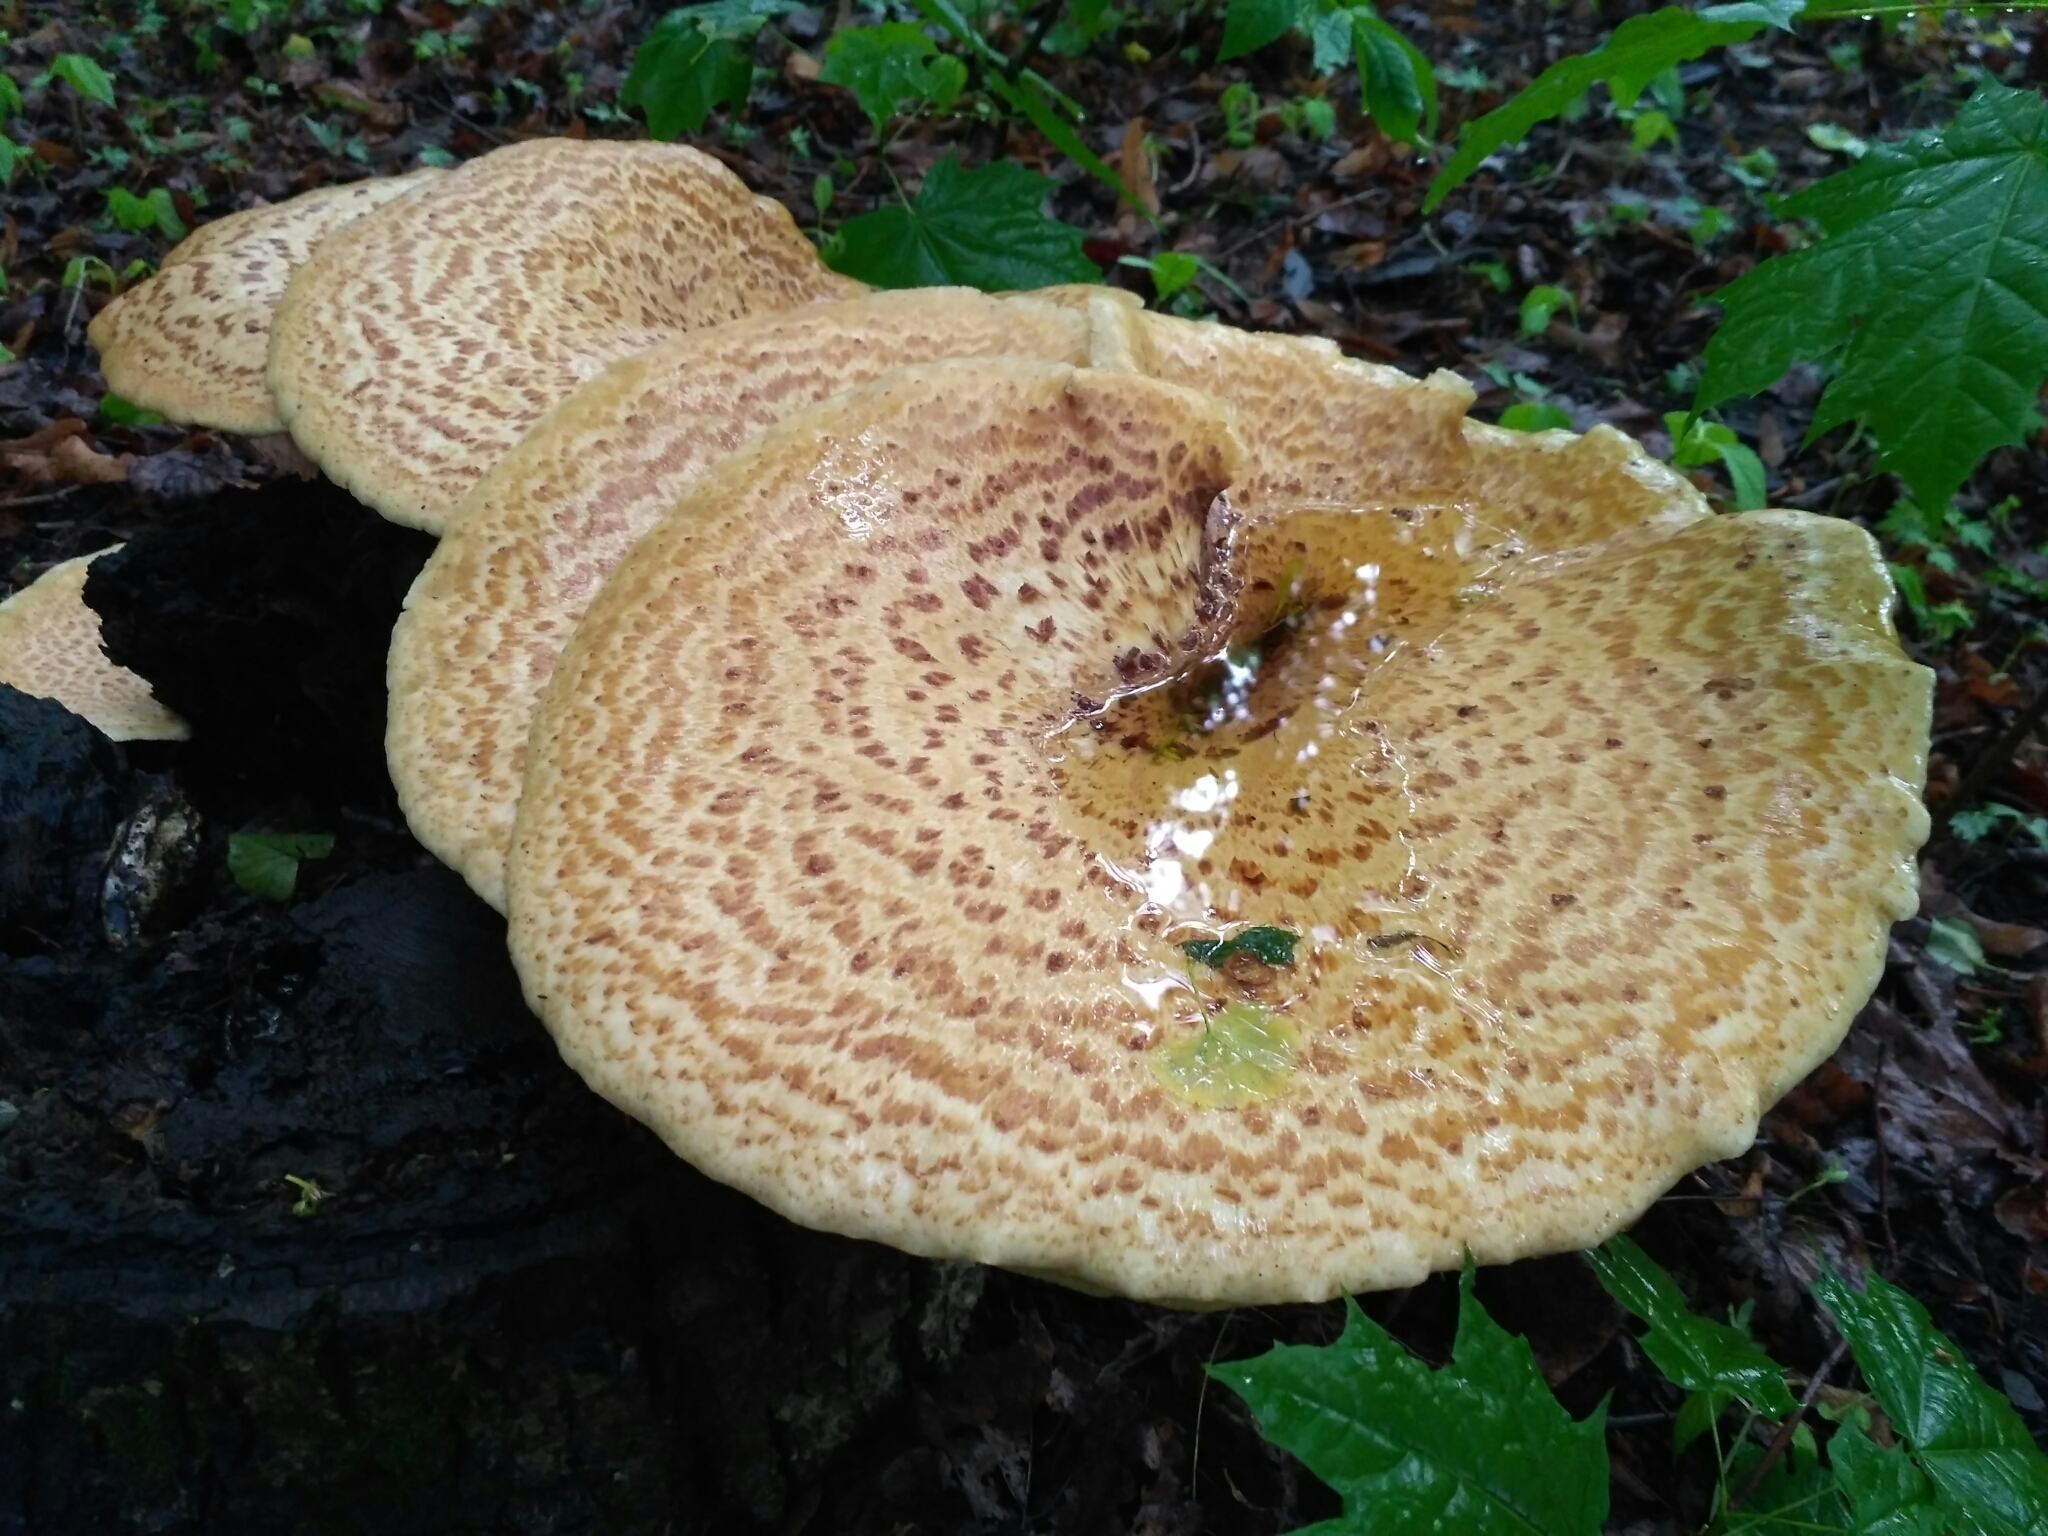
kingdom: Fungi
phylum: Basidiomycota
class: Agaricomycetes
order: Polyporales
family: Polyporaceae
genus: Cerioporus
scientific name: Cerioporus squamosus
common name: Dryad's saddle
